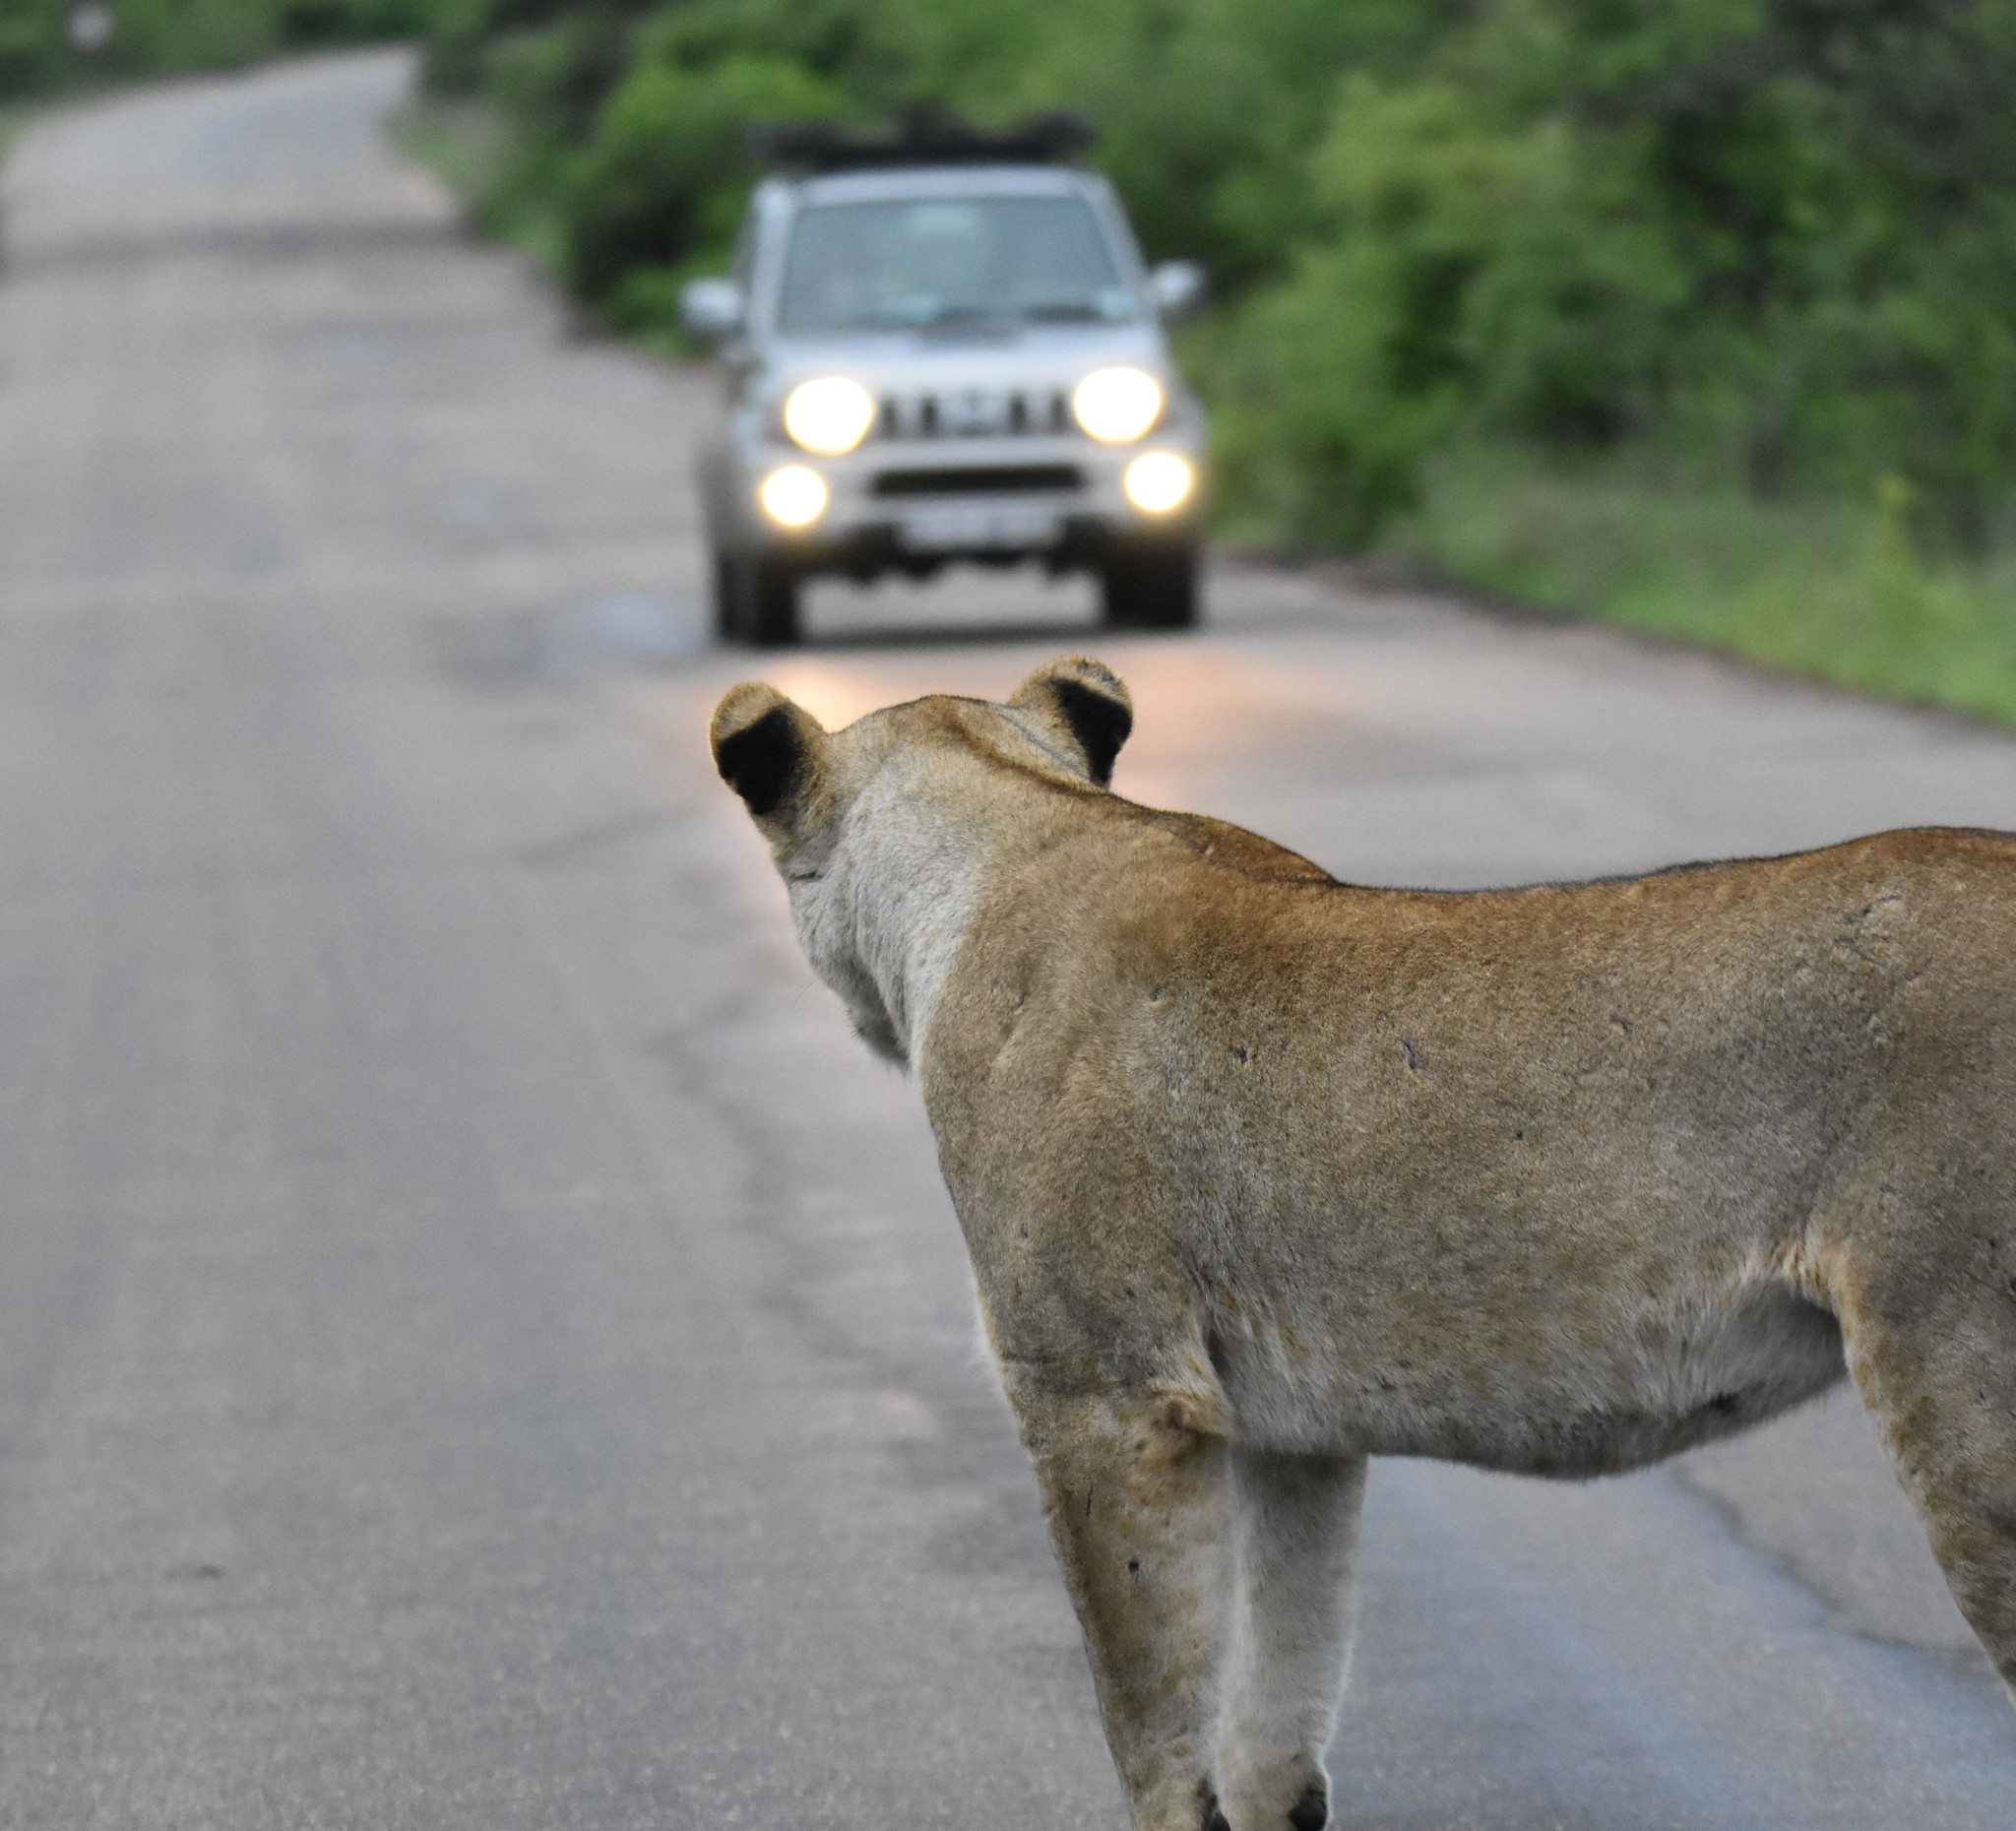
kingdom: Animalia
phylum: Chordata
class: Mammalia
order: Carnivora
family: Felidae
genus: Panthera
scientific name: Panthera leo
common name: Lion
